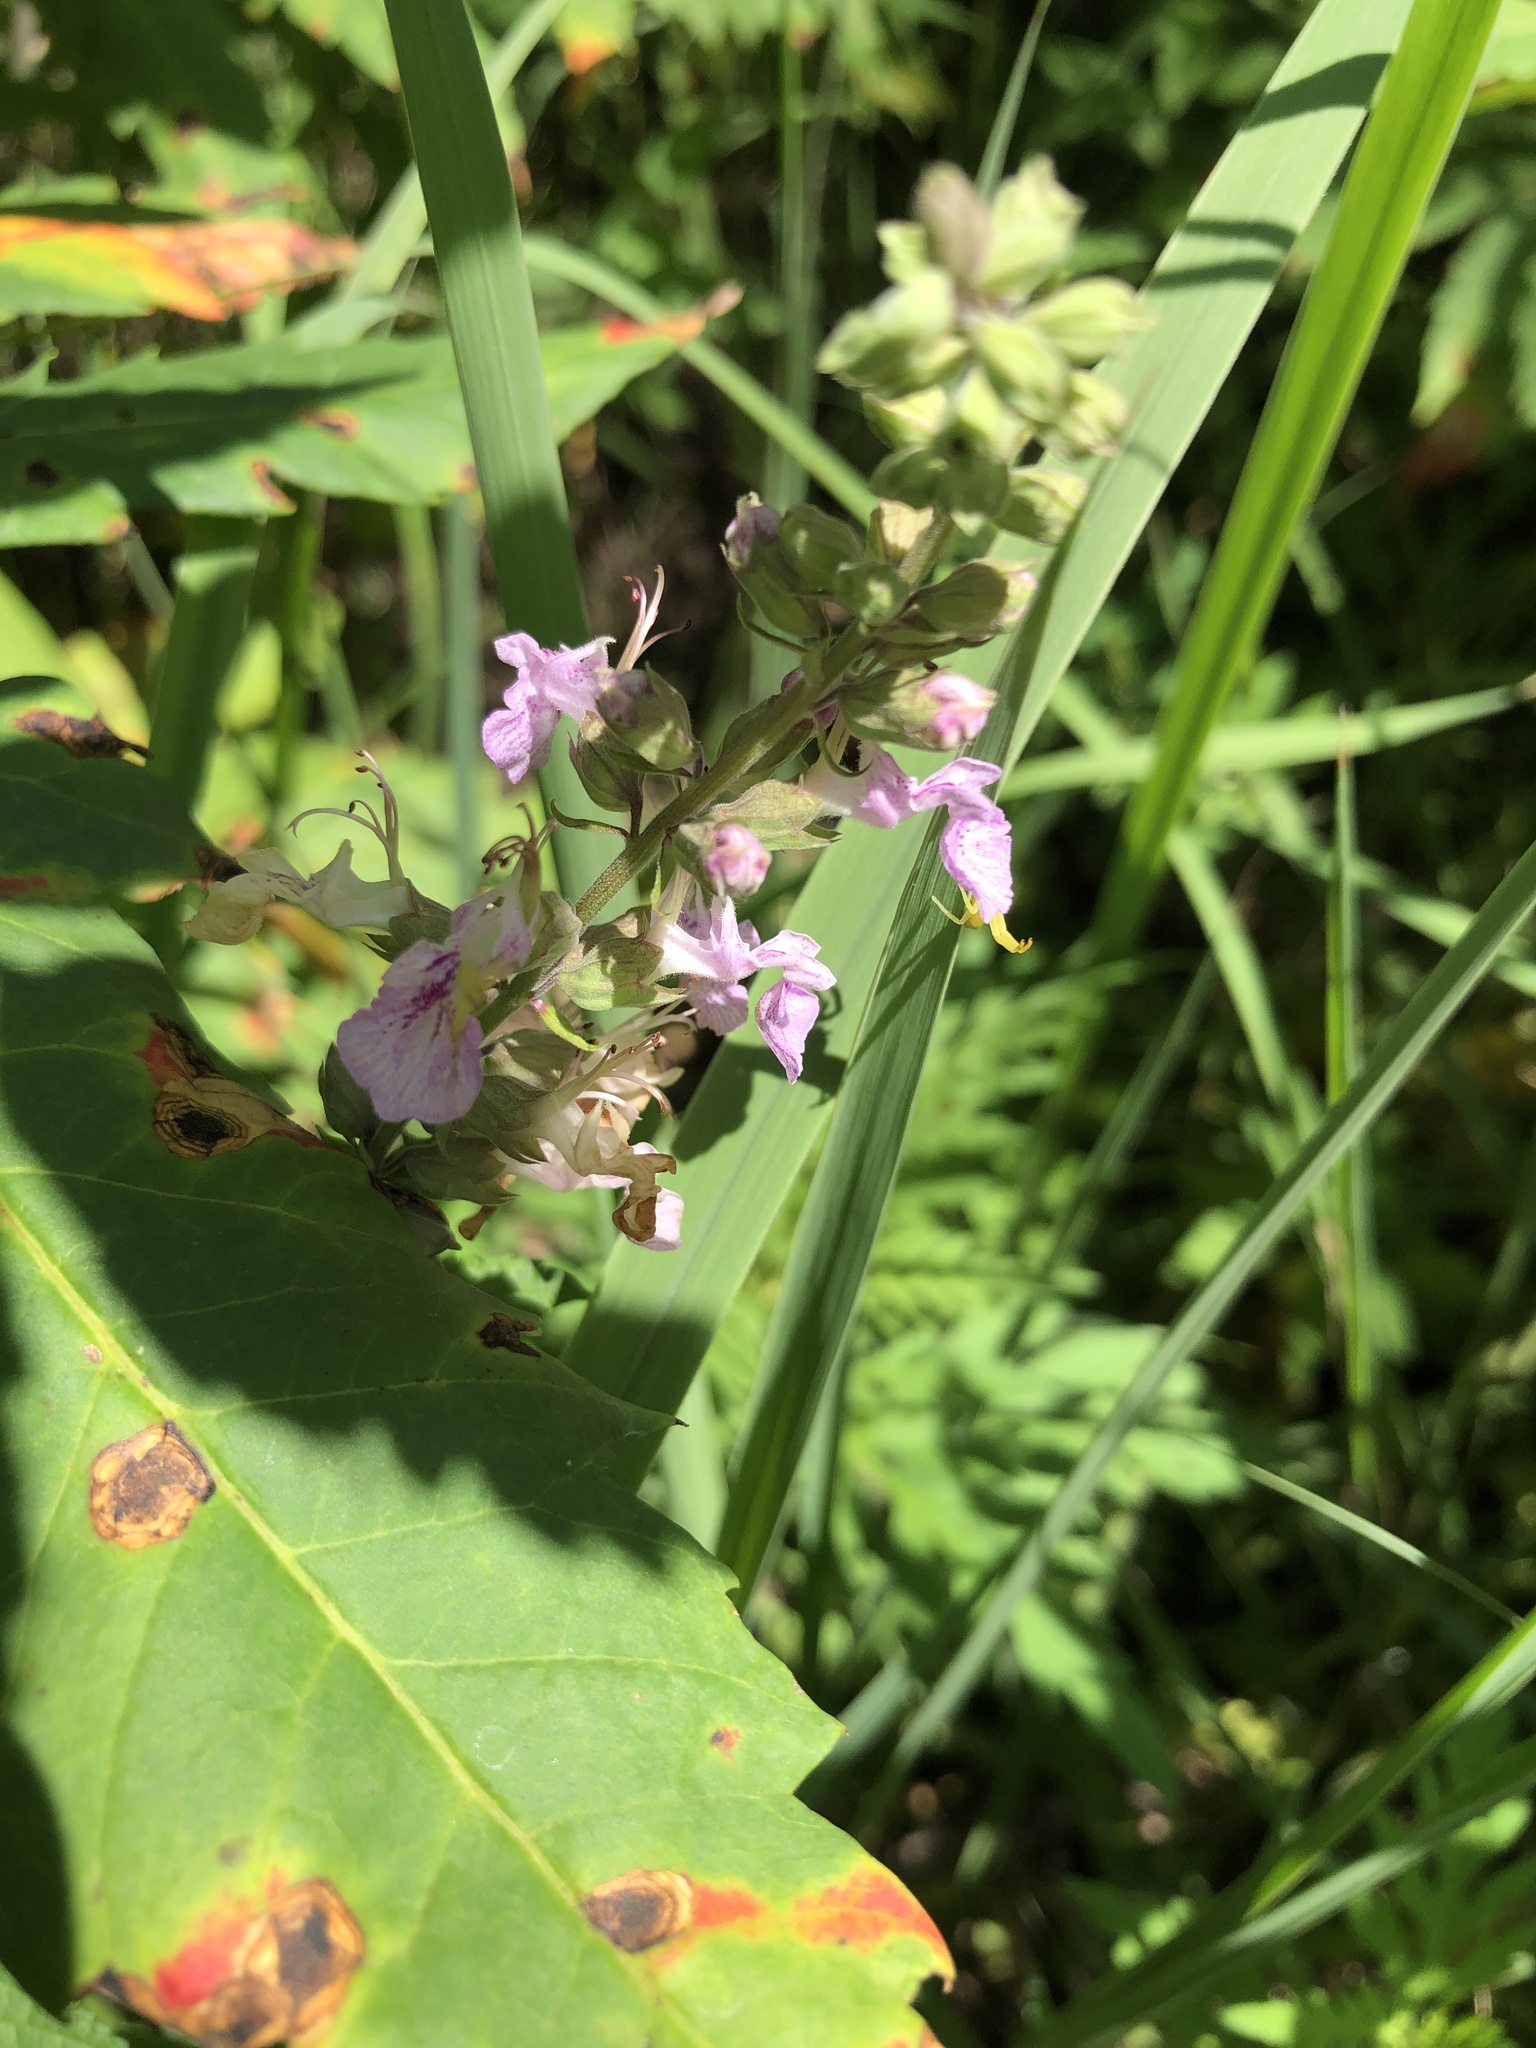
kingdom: Plantae
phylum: Tracheophyta
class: Magnoliopsida
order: Lamiales
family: Lamiaceae
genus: Teucrium
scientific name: Teucrium canadense
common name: American germander
